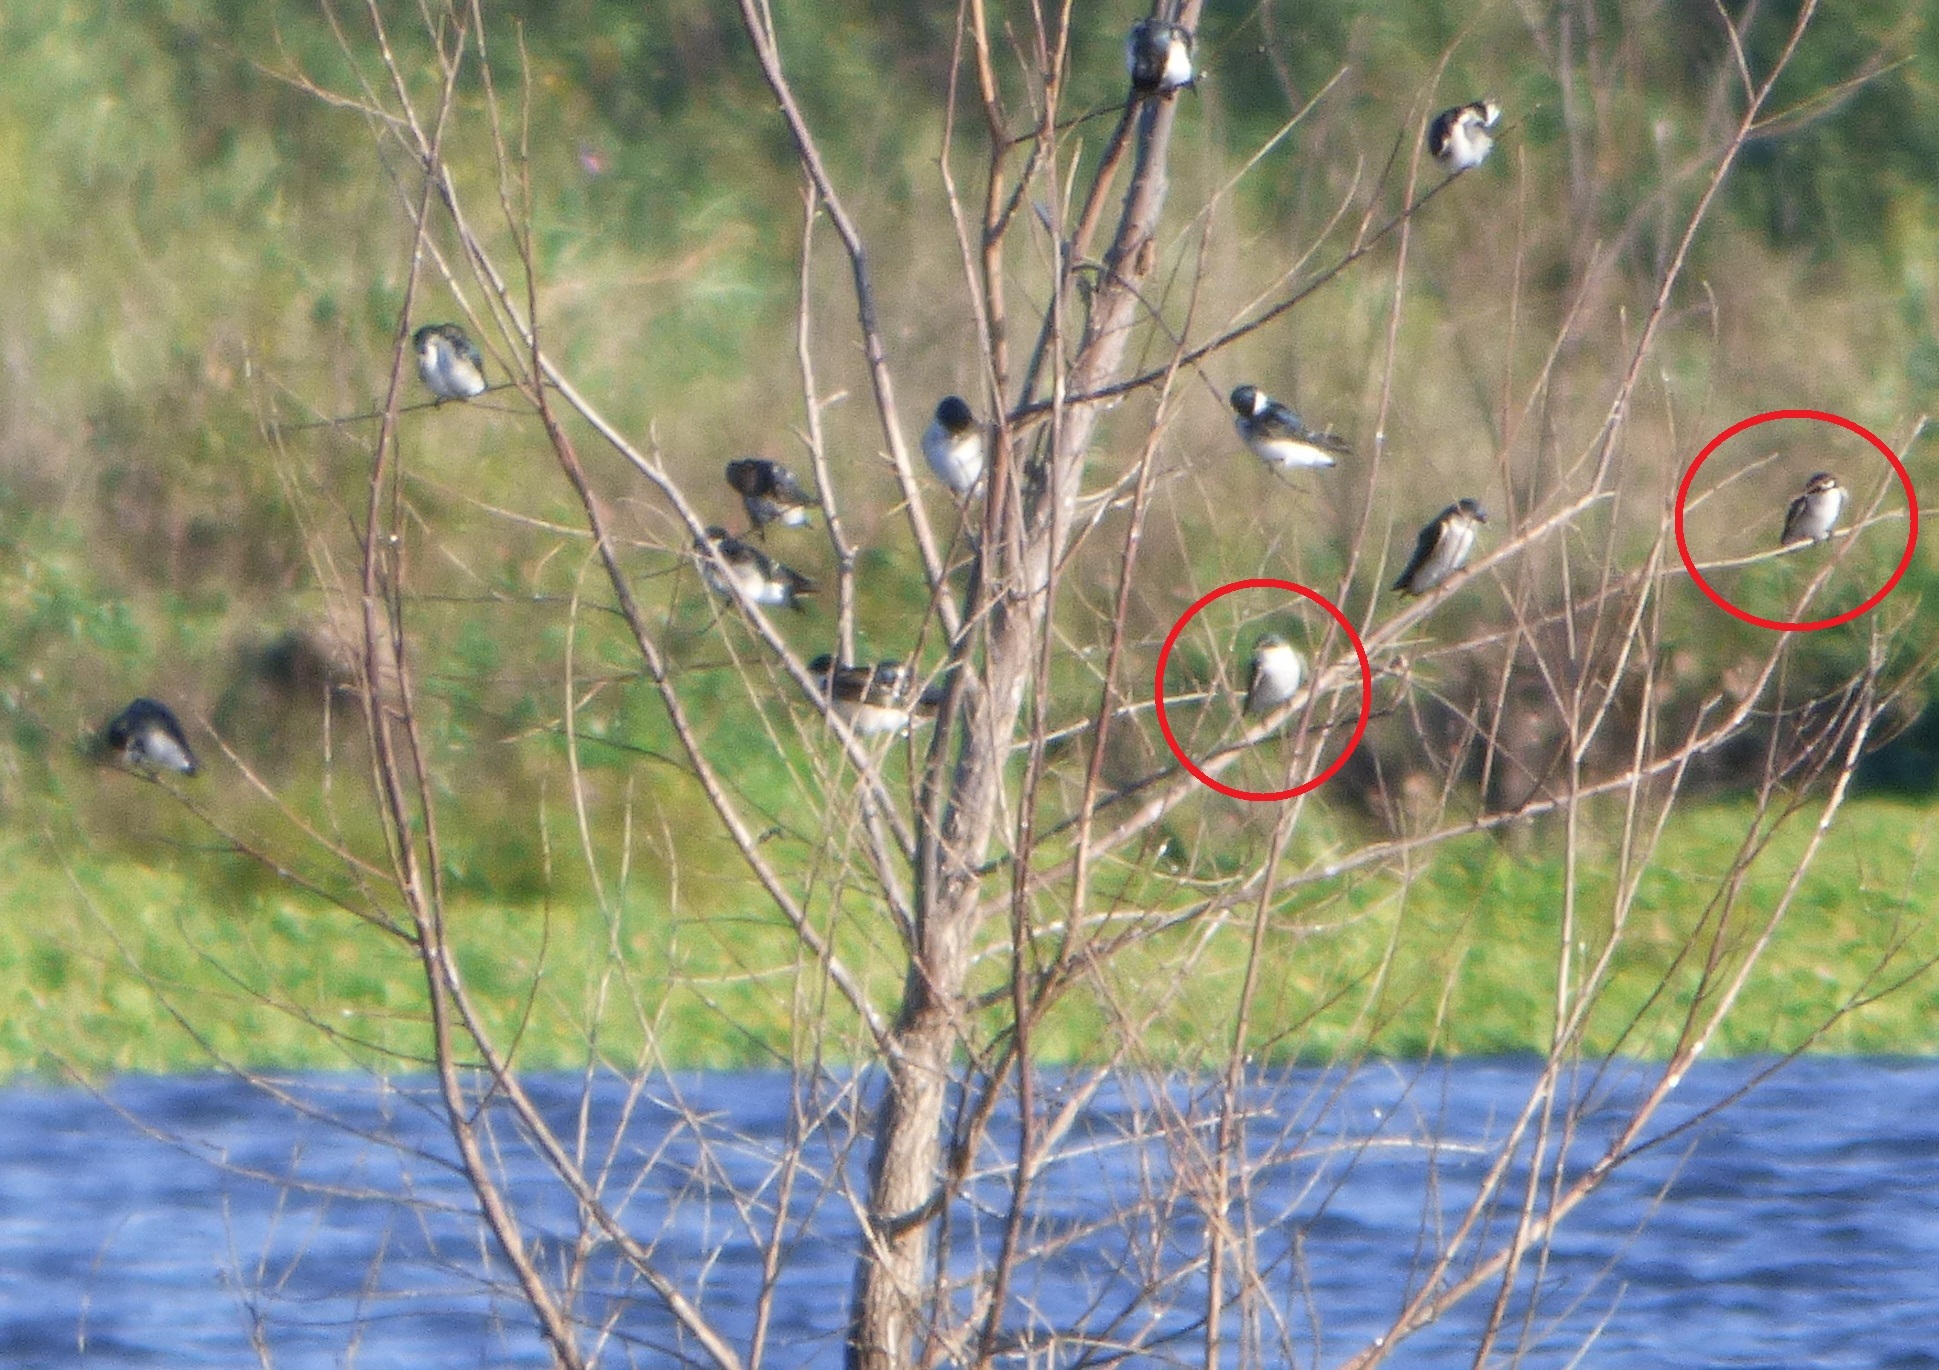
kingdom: Animalia
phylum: Chordata
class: Aves
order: Passeriformes
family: Hirundinidae
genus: Tachycineta
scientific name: Tachycineta leucorrhoa
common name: White-rumped swallow
